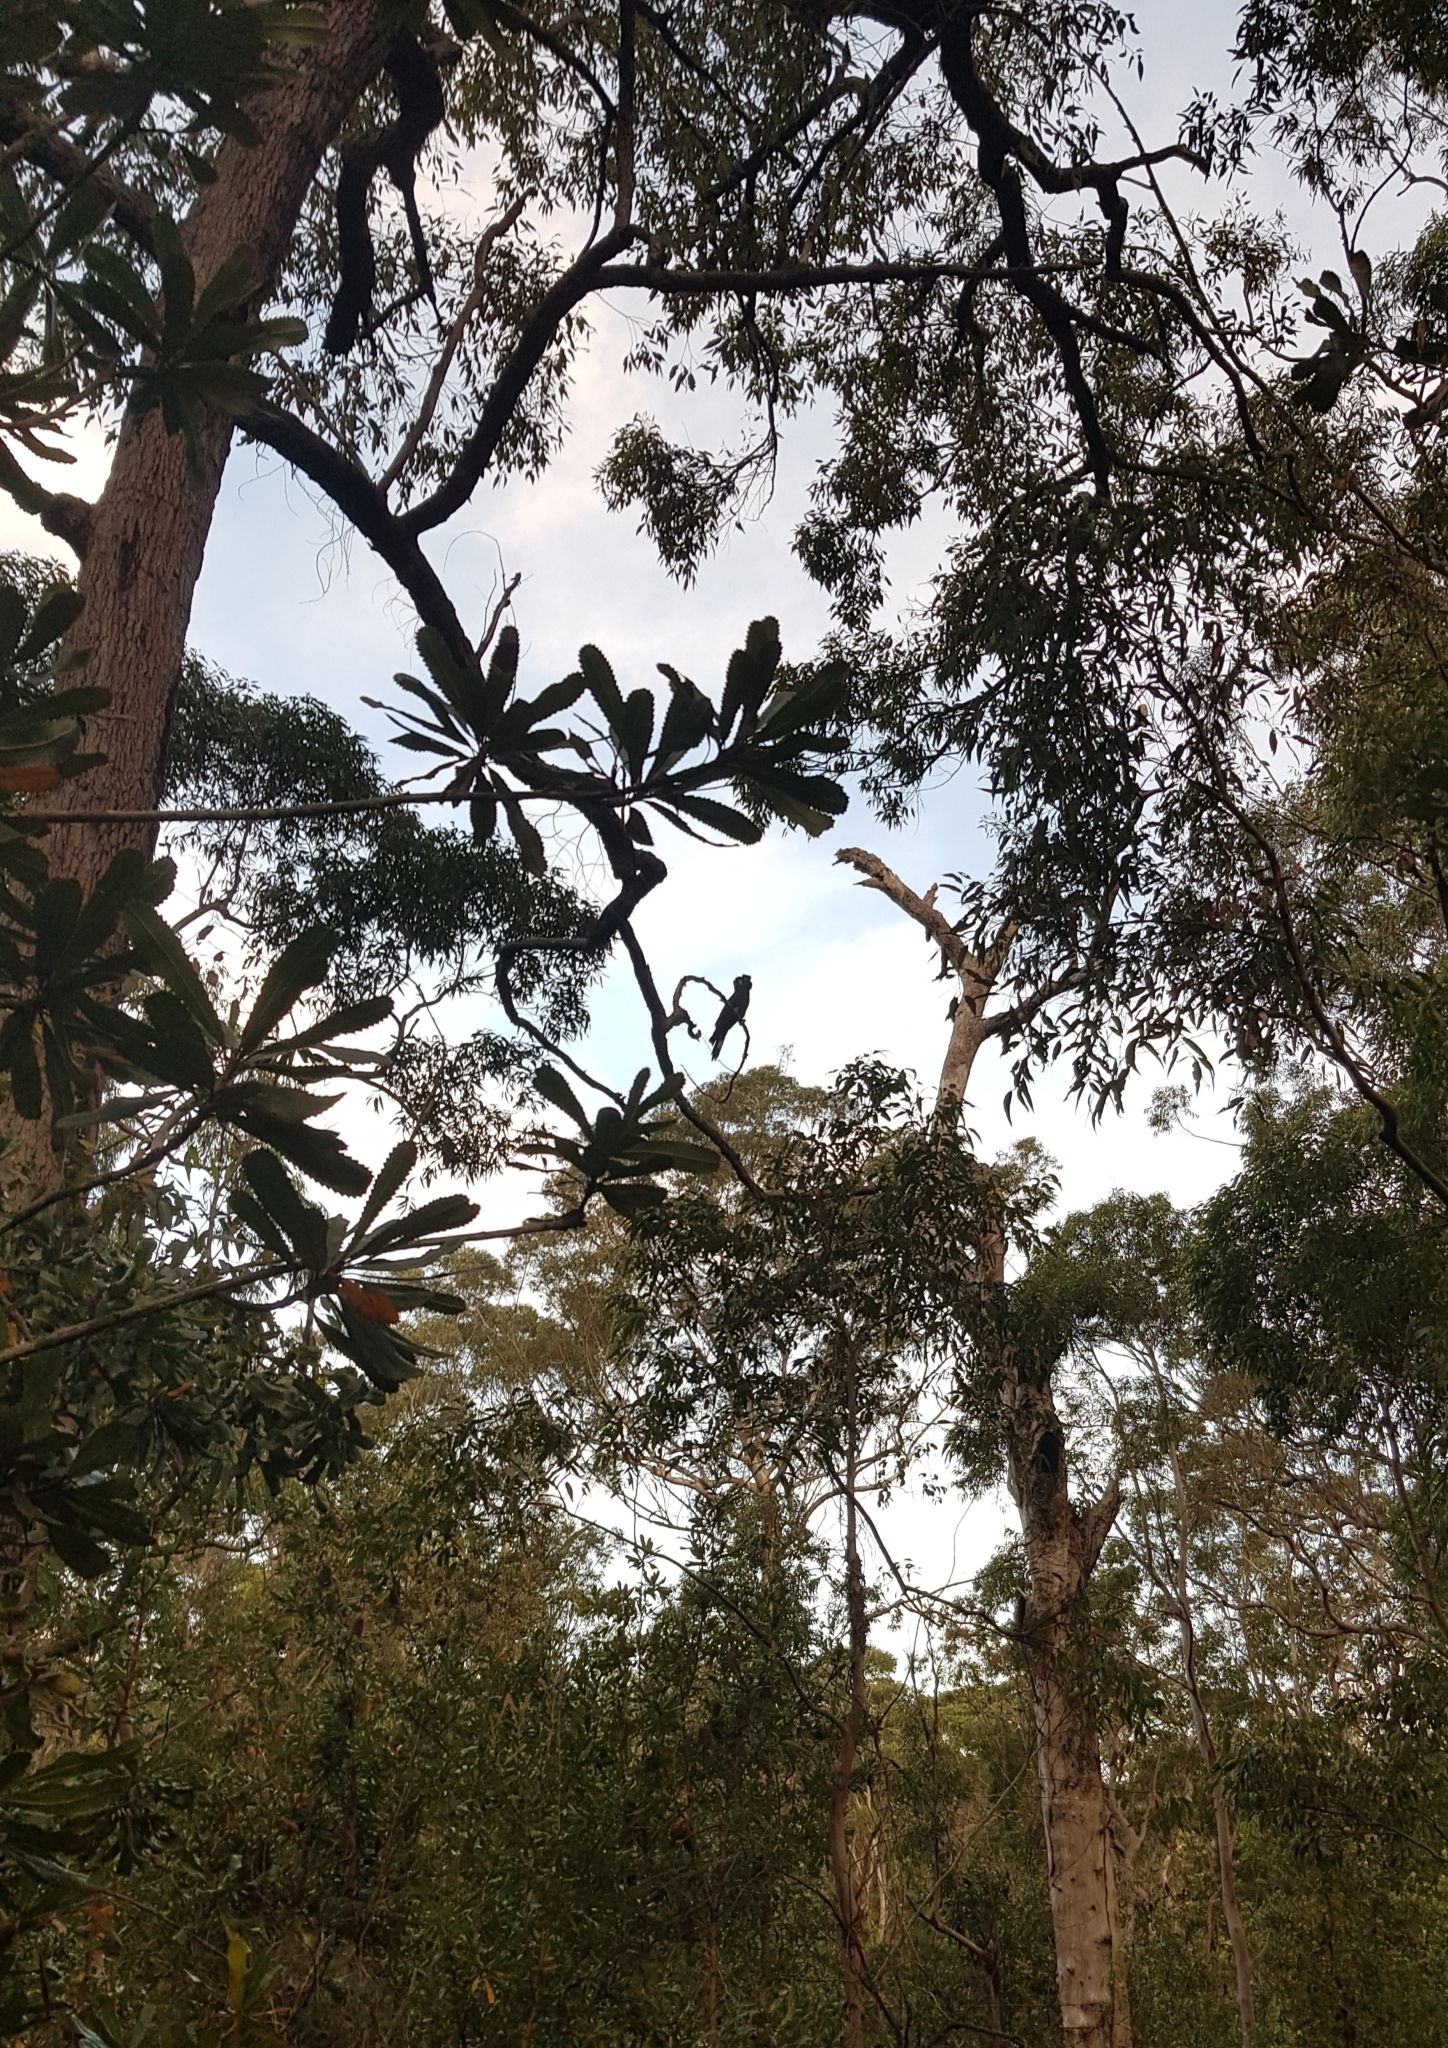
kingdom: Animalia
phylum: Chordata
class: Aves
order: Psittaciformes
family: Cacatuidae
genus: Zanda
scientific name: Zanda funerea
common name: Yellow-tailed black-cockatoo
